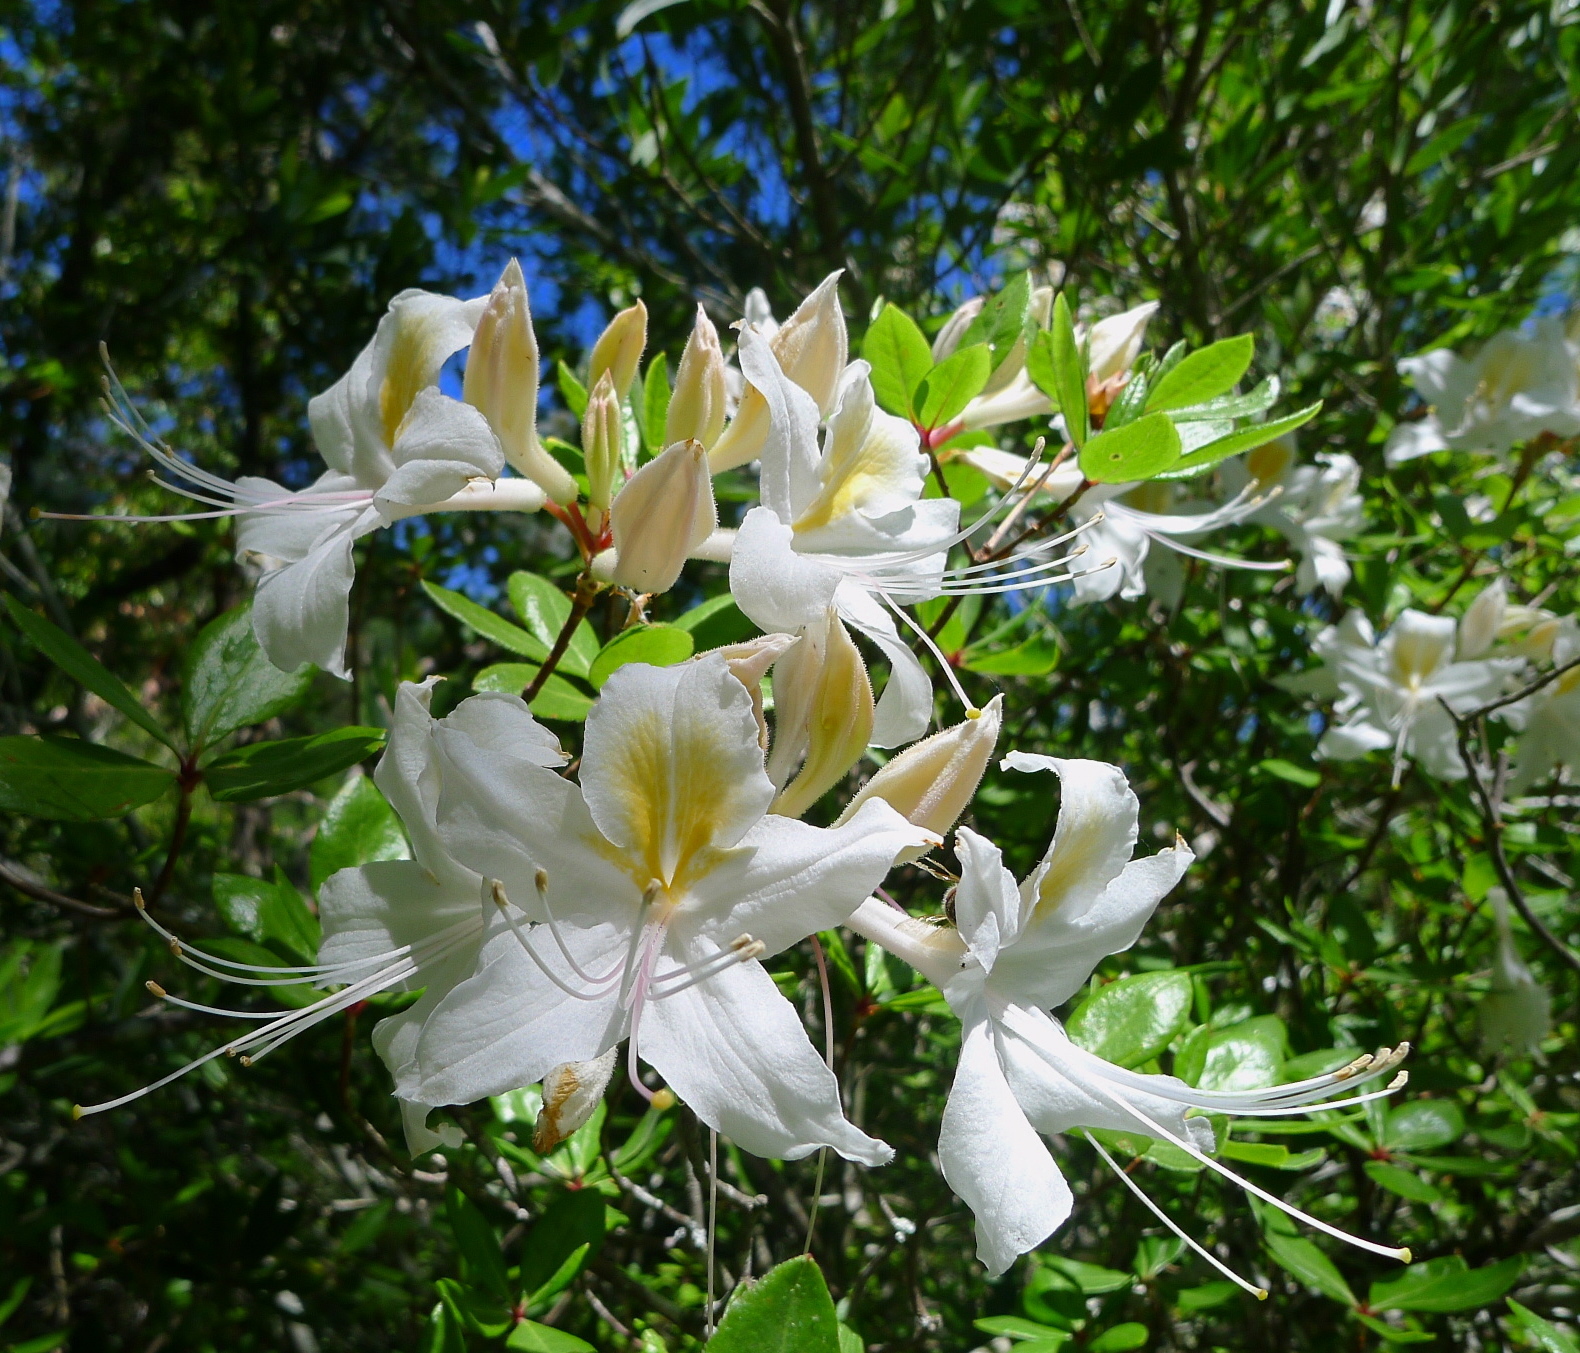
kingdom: Plantae
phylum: Tracheophyta
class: Magnoliopsida
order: Ericales
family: Ericaceae
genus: Rhododendron
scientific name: Rhododendron occidentale
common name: Western azalea
